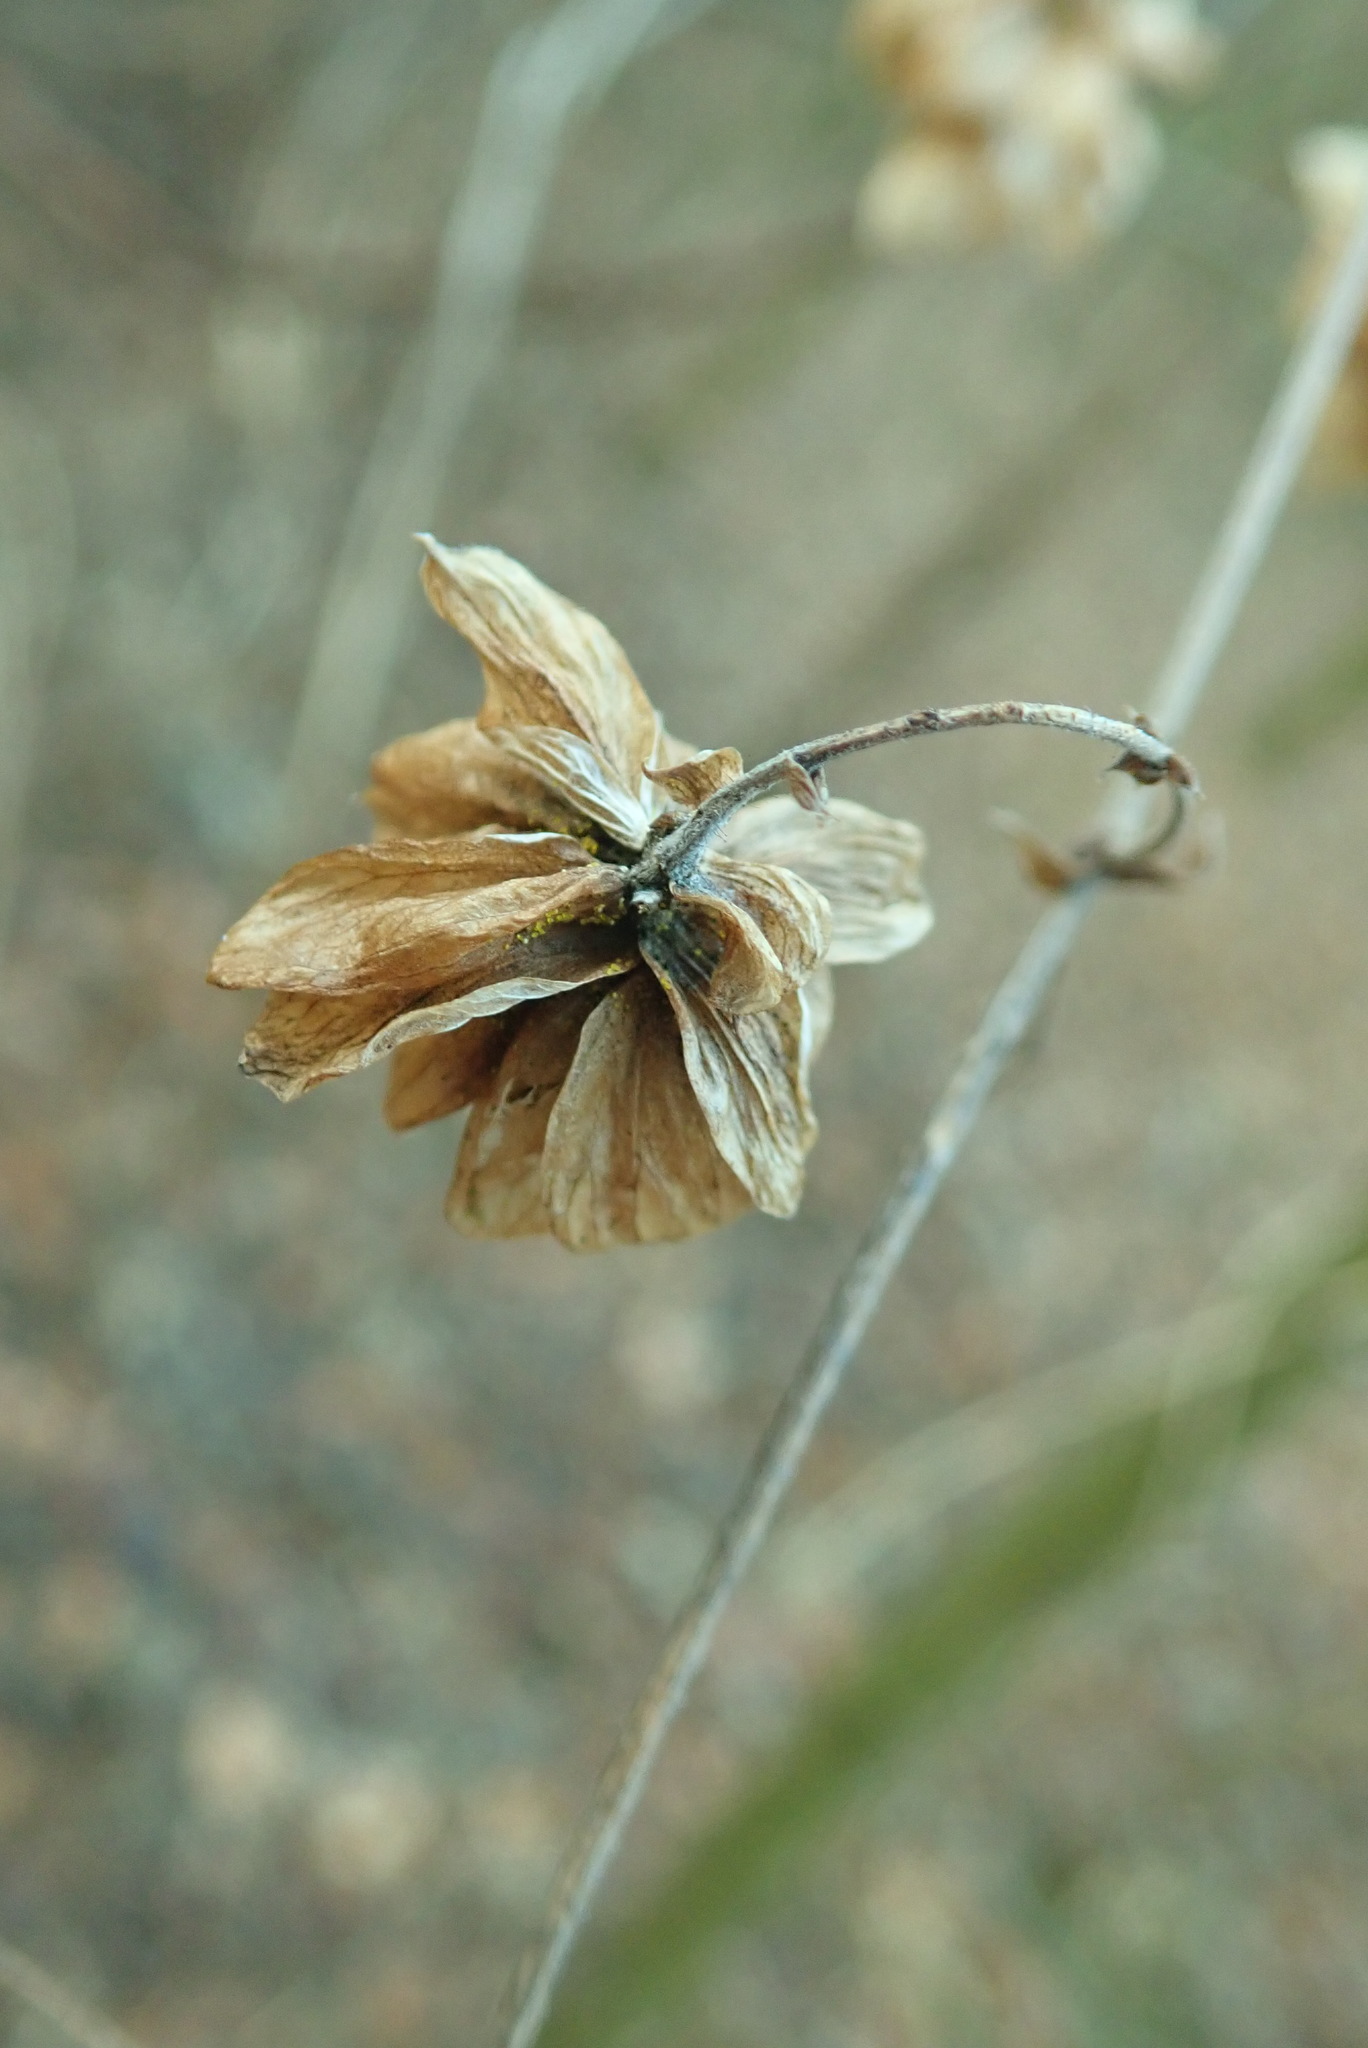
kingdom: Plantae
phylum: Tracheophyta
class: Magnoliopsida
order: Rosales
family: Cannabaceae
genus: Humulus
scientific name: Humulus lupulus
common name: Hop
